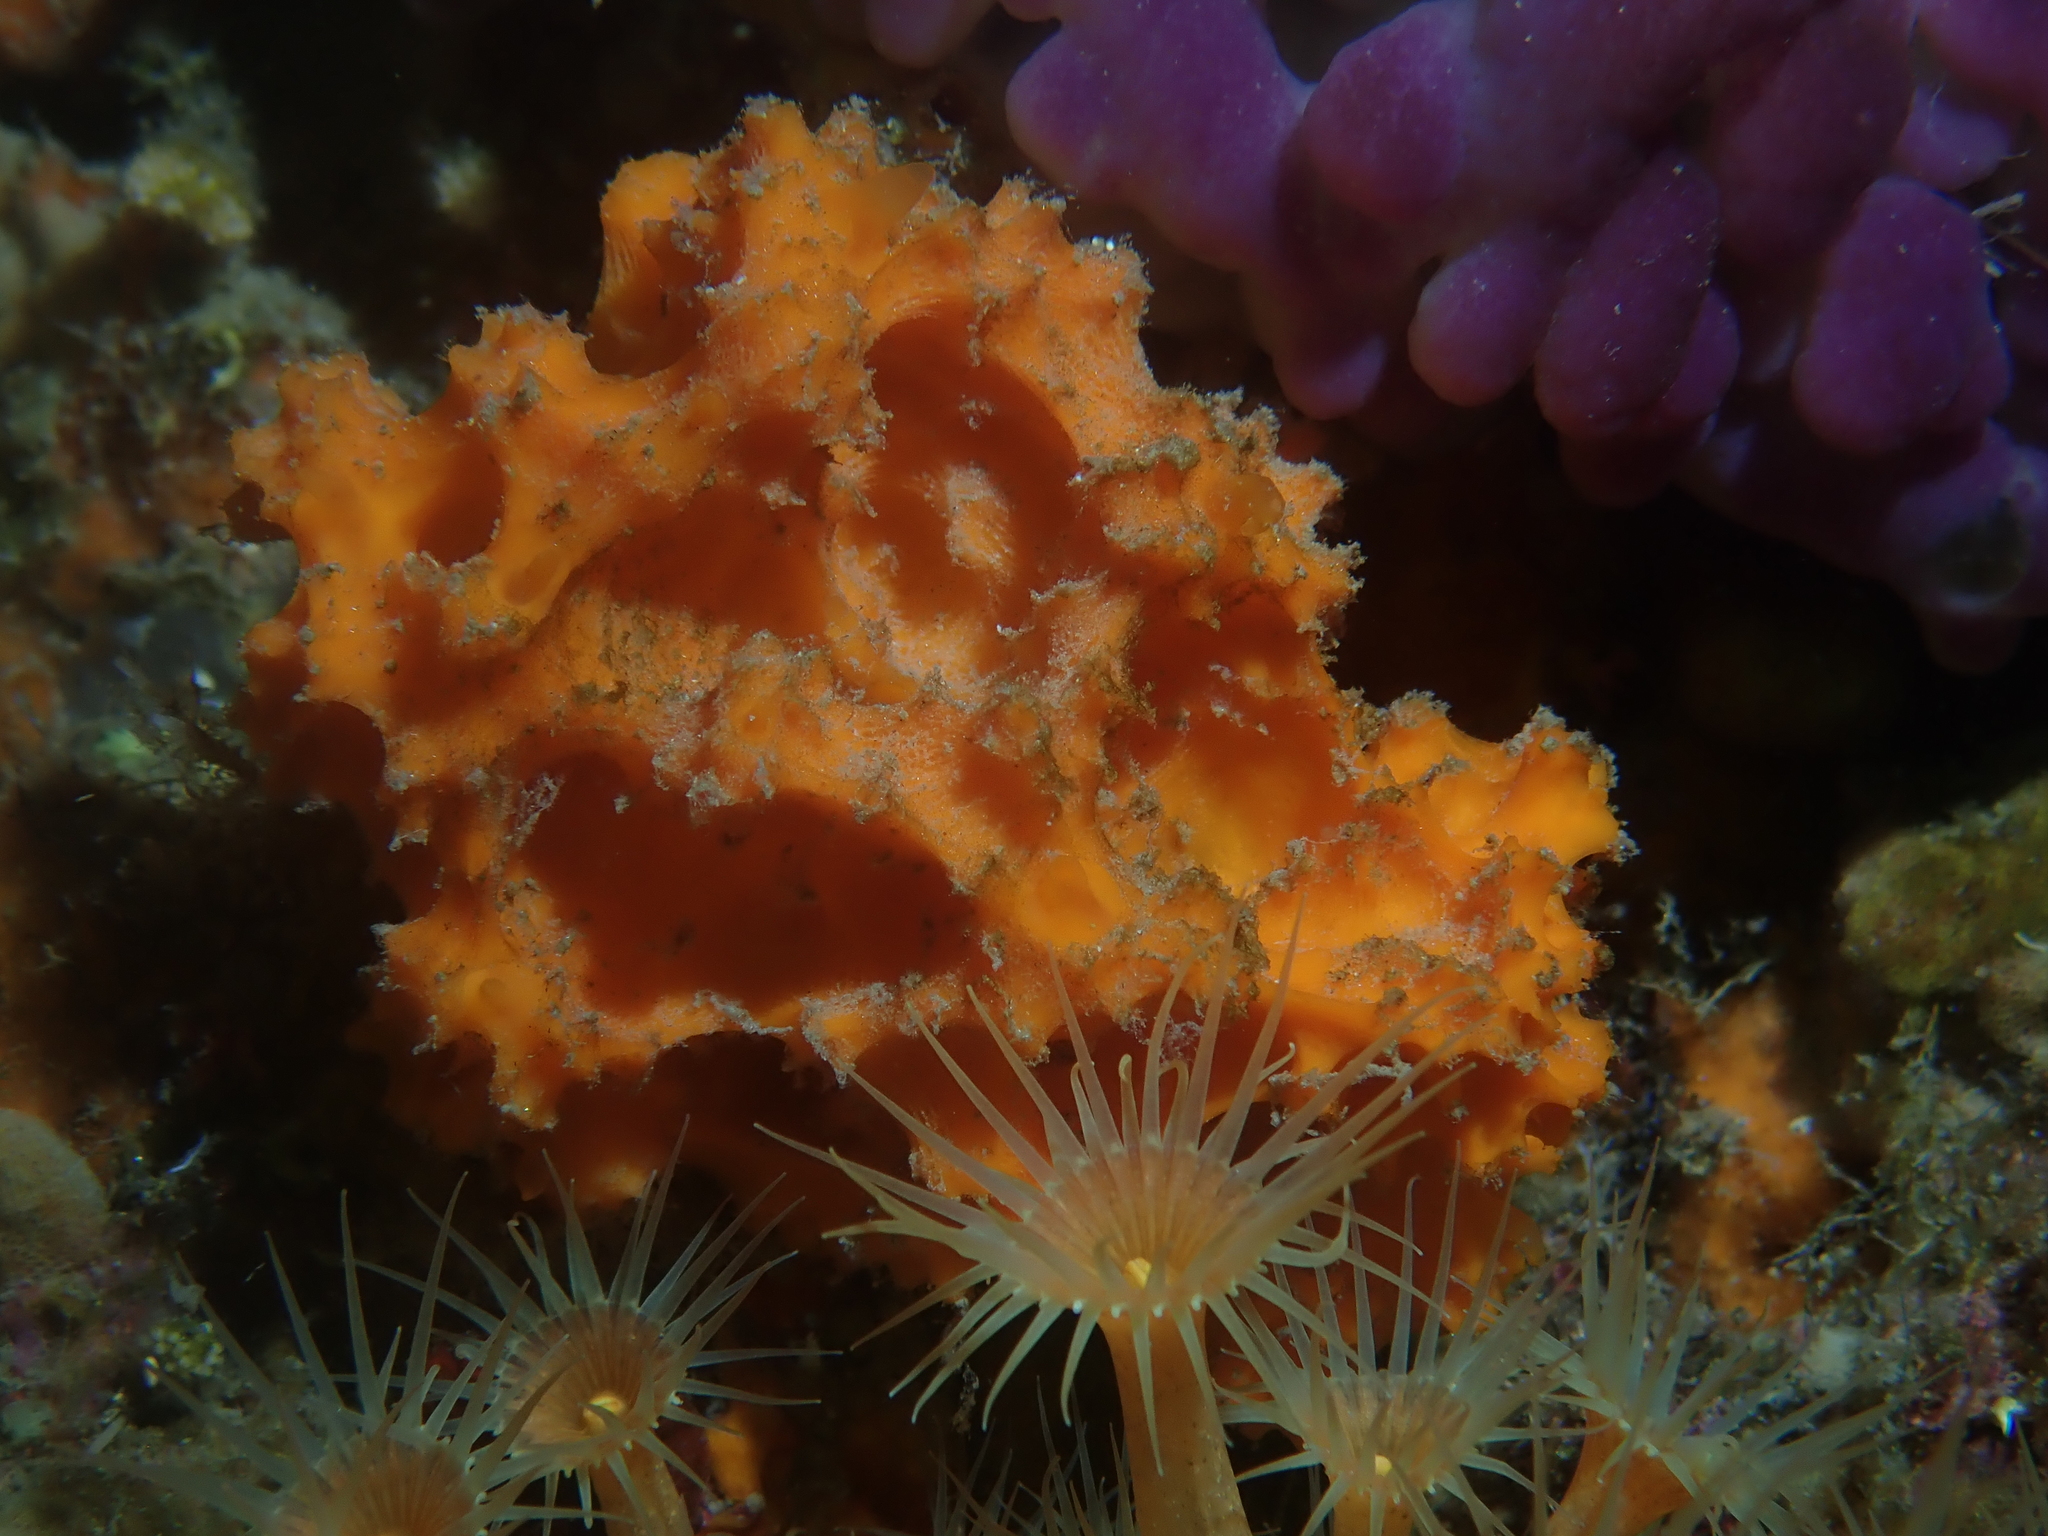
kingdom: Animalia
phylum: Porifera
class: Demospongiae
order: Bubarida
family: Dictyonellidae
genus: Acanthella
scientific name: Acanthella acuta
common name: Cactus sponge
